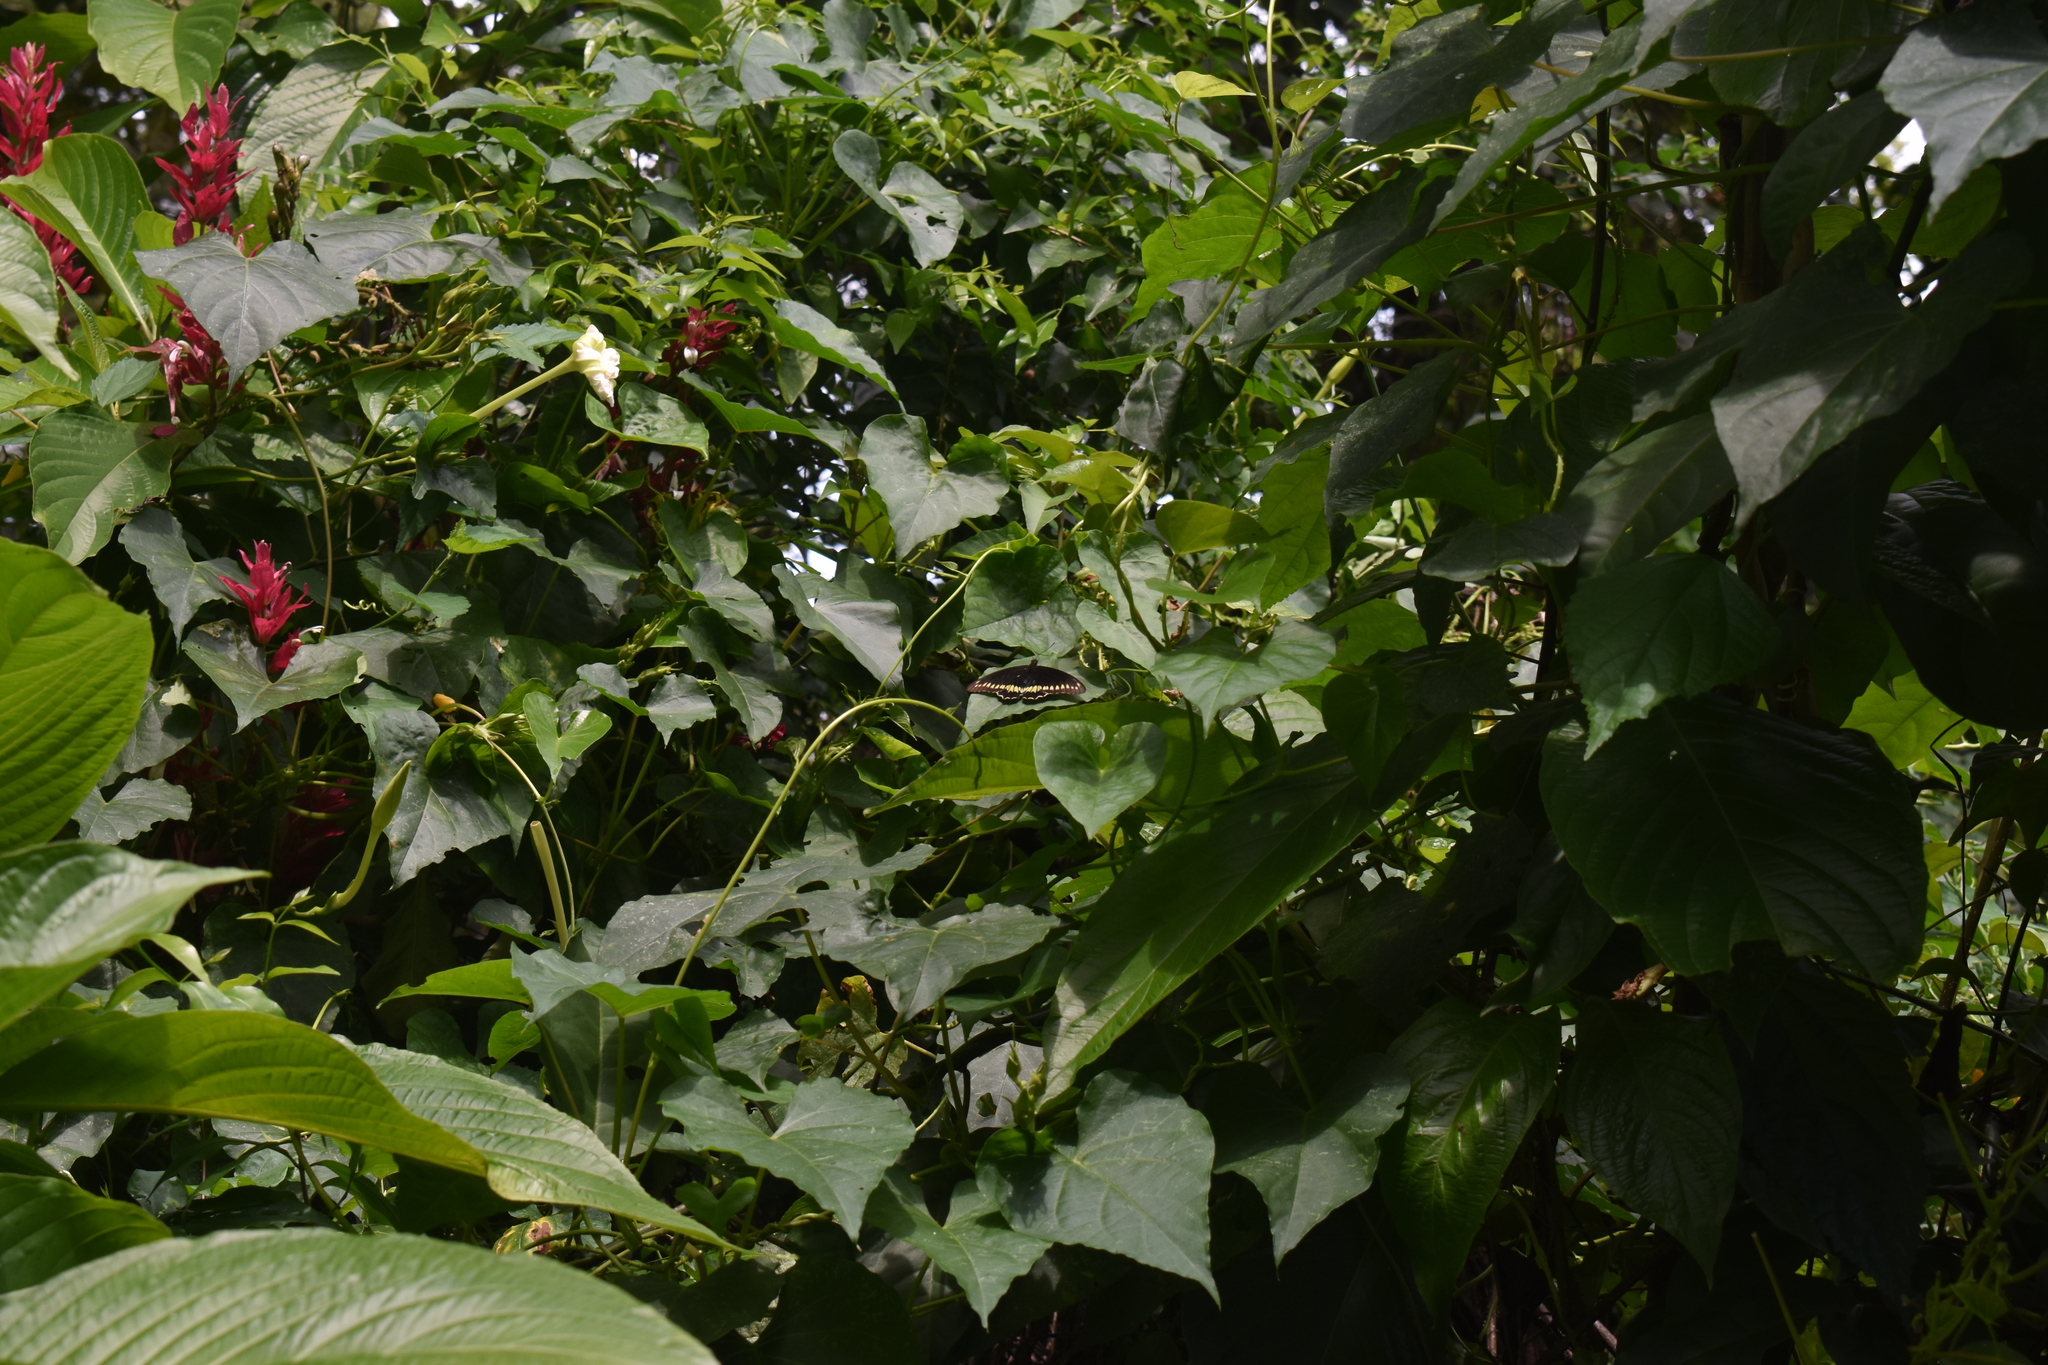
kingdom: Animalia
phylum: Arthropoda
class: Insecta
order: Lepidoptera
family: Papilionidae
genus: Battus
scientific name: Battus polydamas
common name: Polydamas swallowtail
